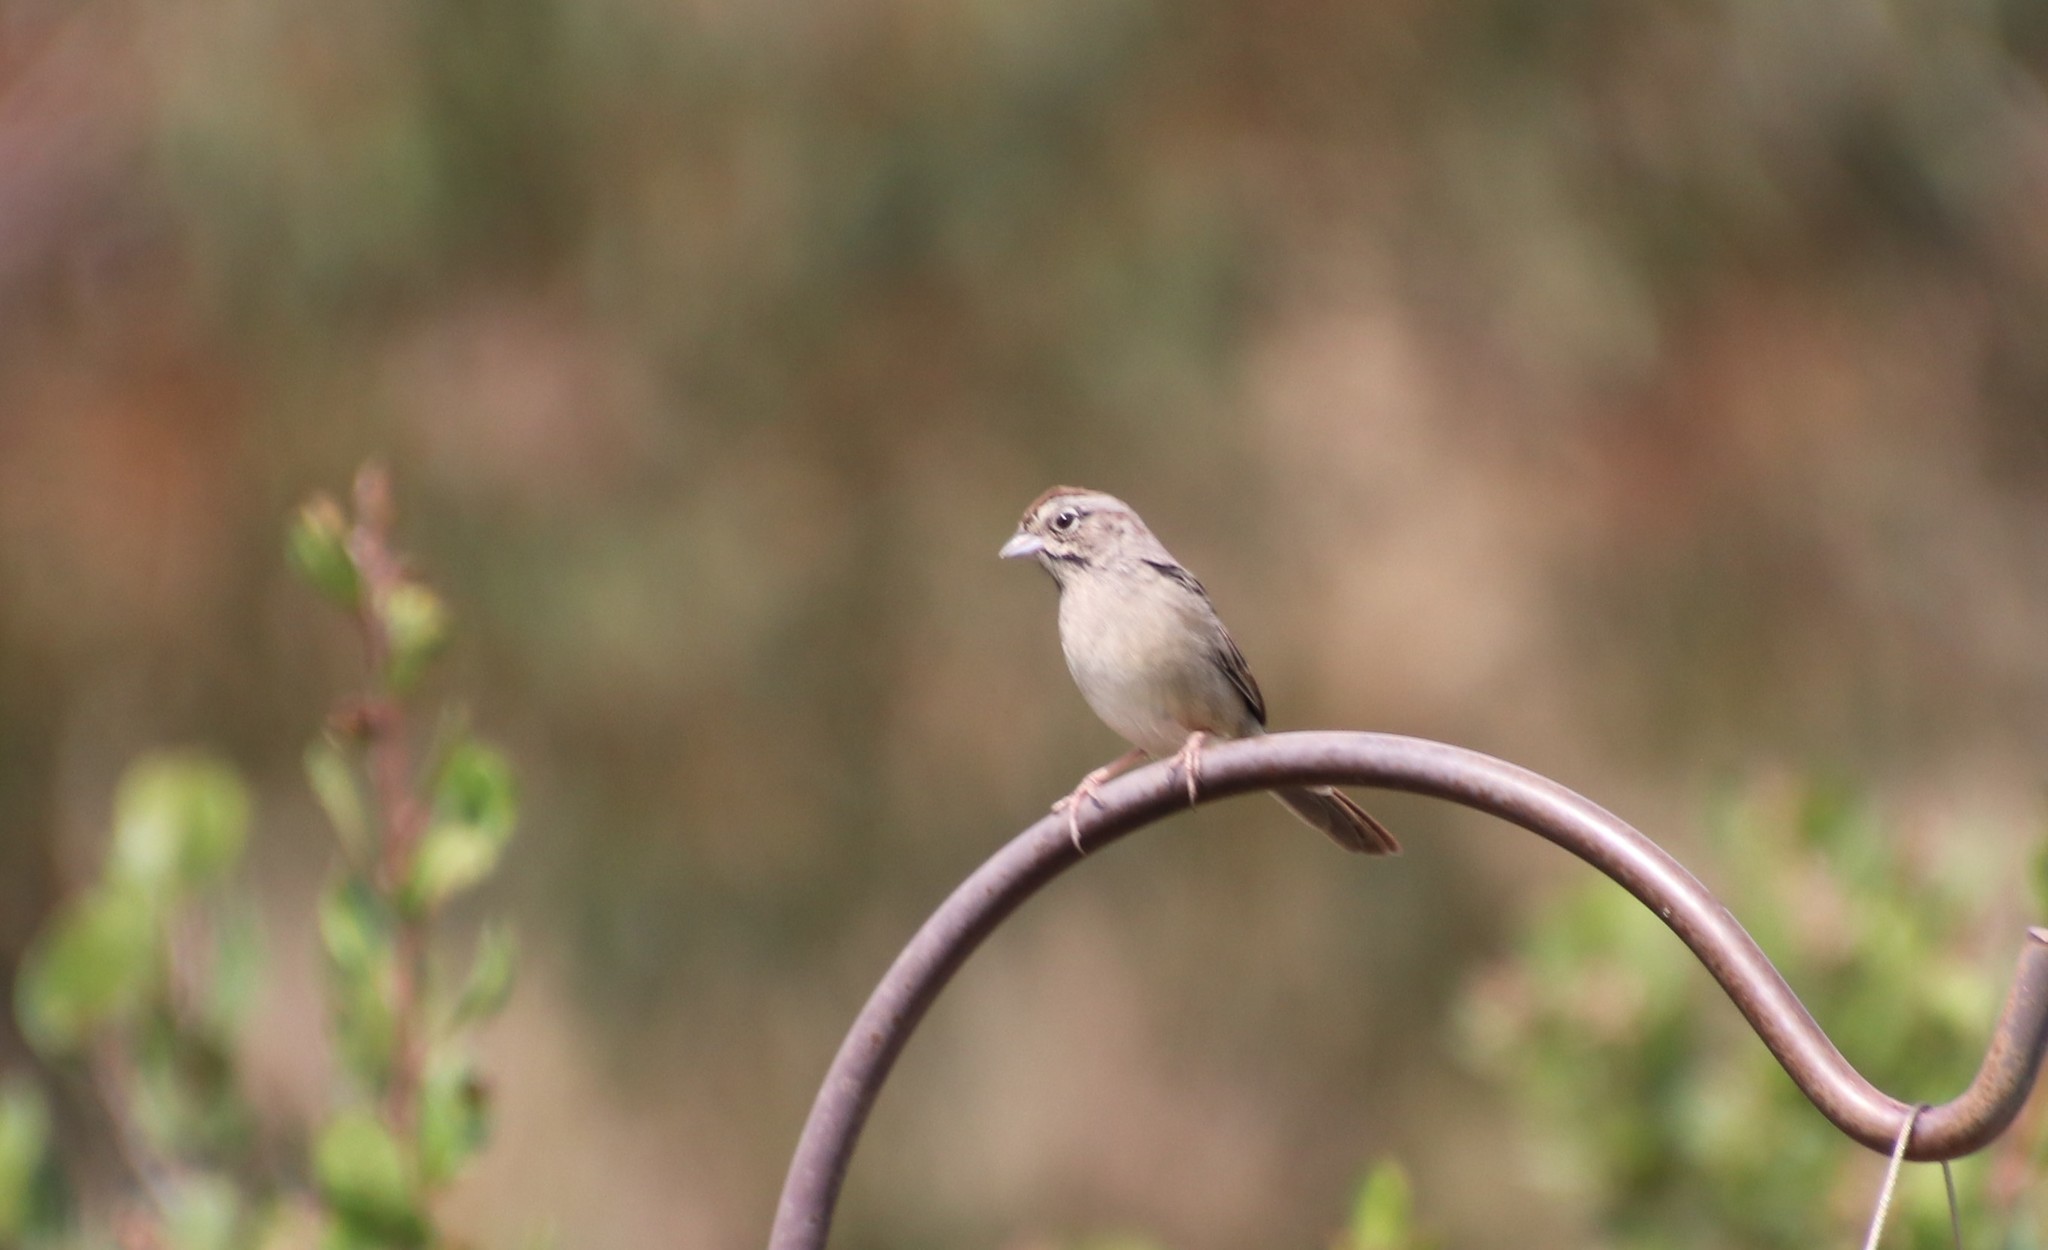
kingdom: Animalia
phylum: Chordata
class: Aves
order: Passeriformes
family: Passerellidae
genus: Aimophila
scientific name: Aimophila ruficeps
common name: Rufous-crowned sparrow
